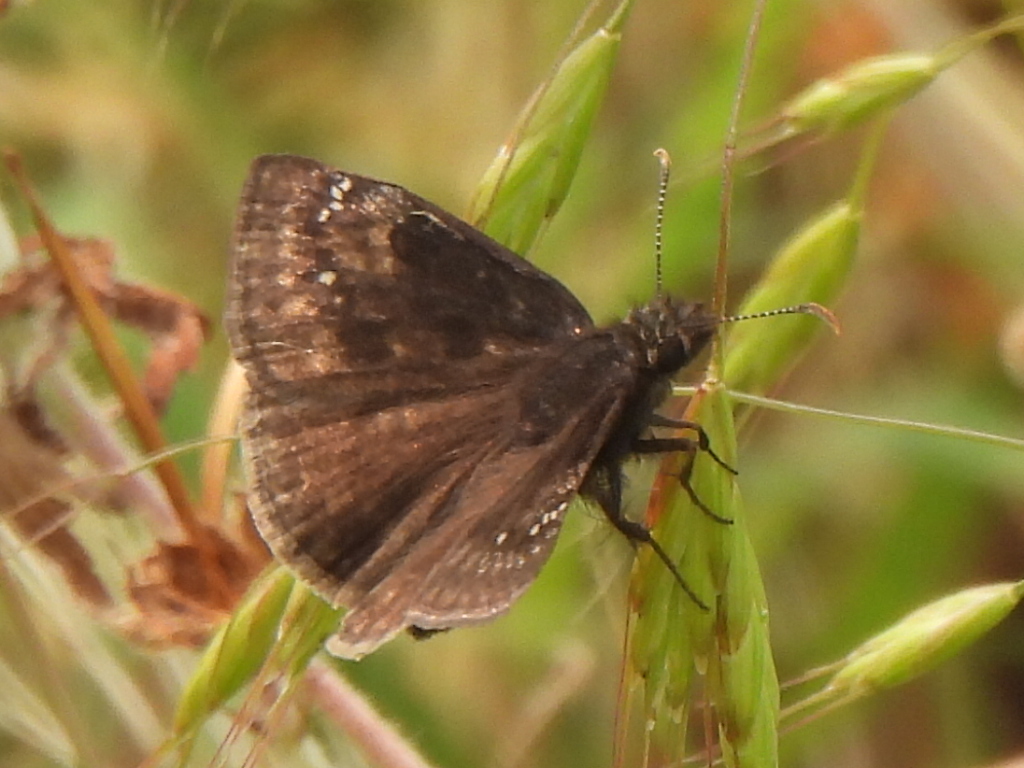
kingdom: Animalia
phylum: Arthropoda
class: Insecta
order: Lepidoptera
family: Hesperiidae
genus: Erynnis
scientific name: Erynnis baptisiae
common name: Wild indigo duskywing
